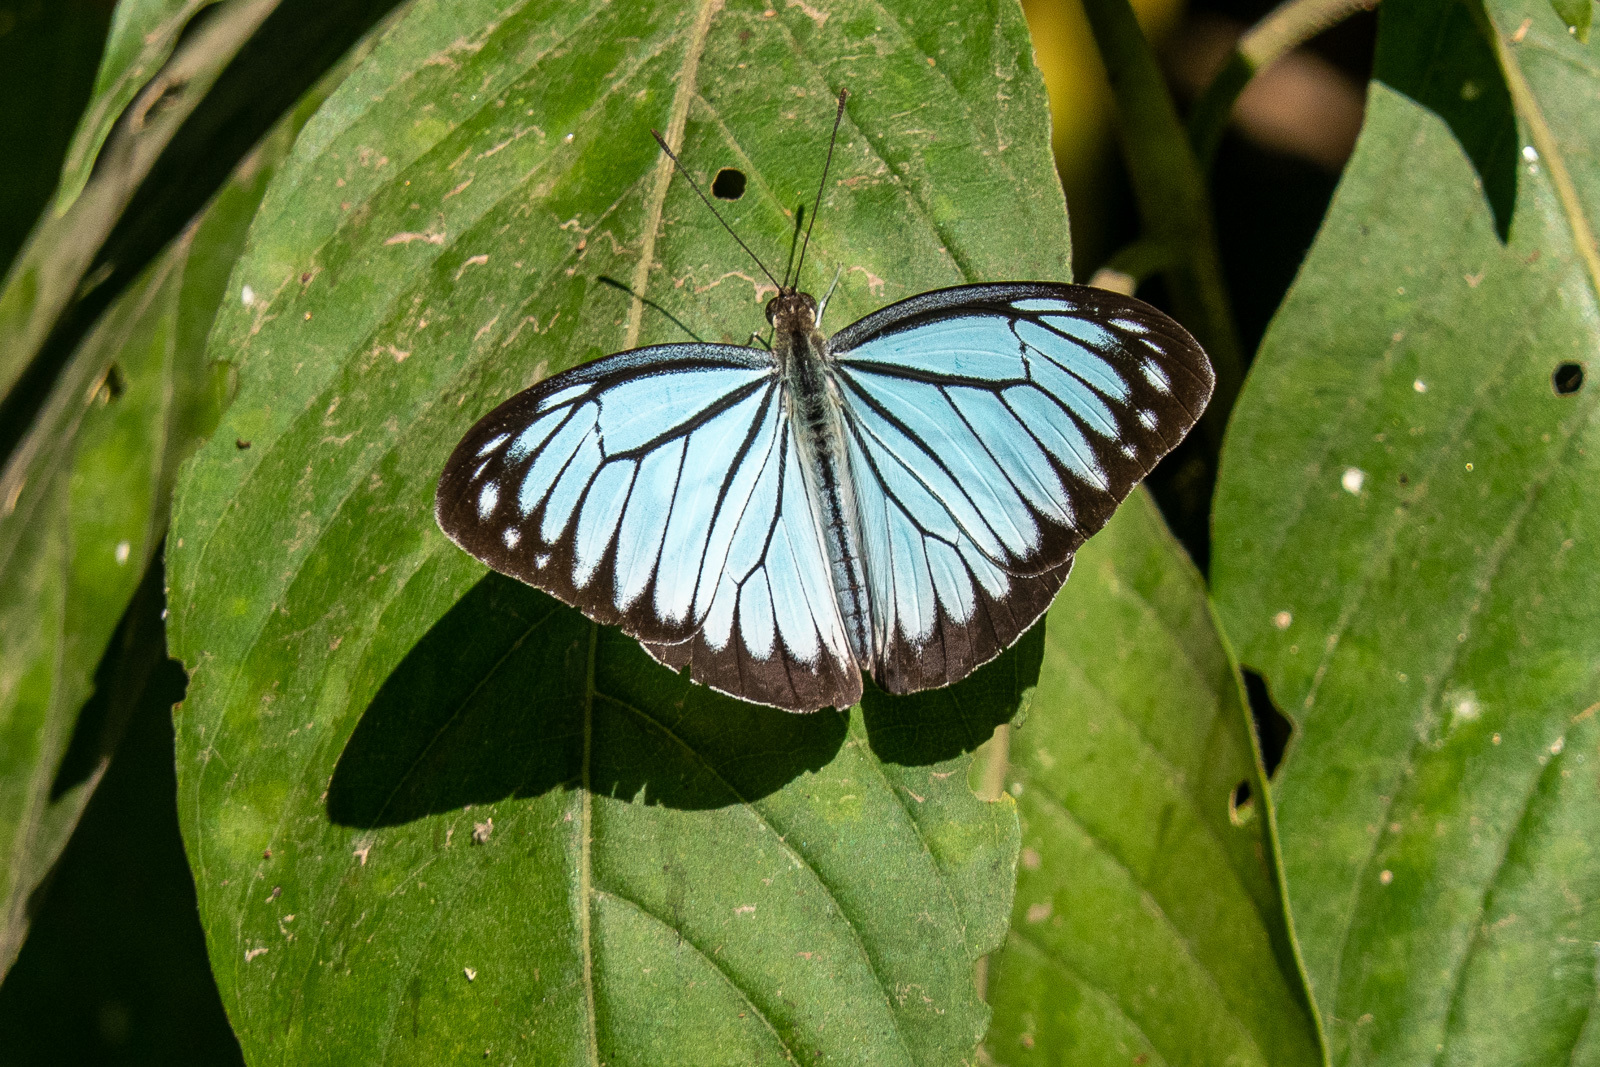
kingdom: Animalia
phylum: Arthropoda
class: Insecta
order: Lepidoptera
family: Pieridae
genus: Pareronia
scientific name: Pareronia hippia
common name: Indian wanderer
